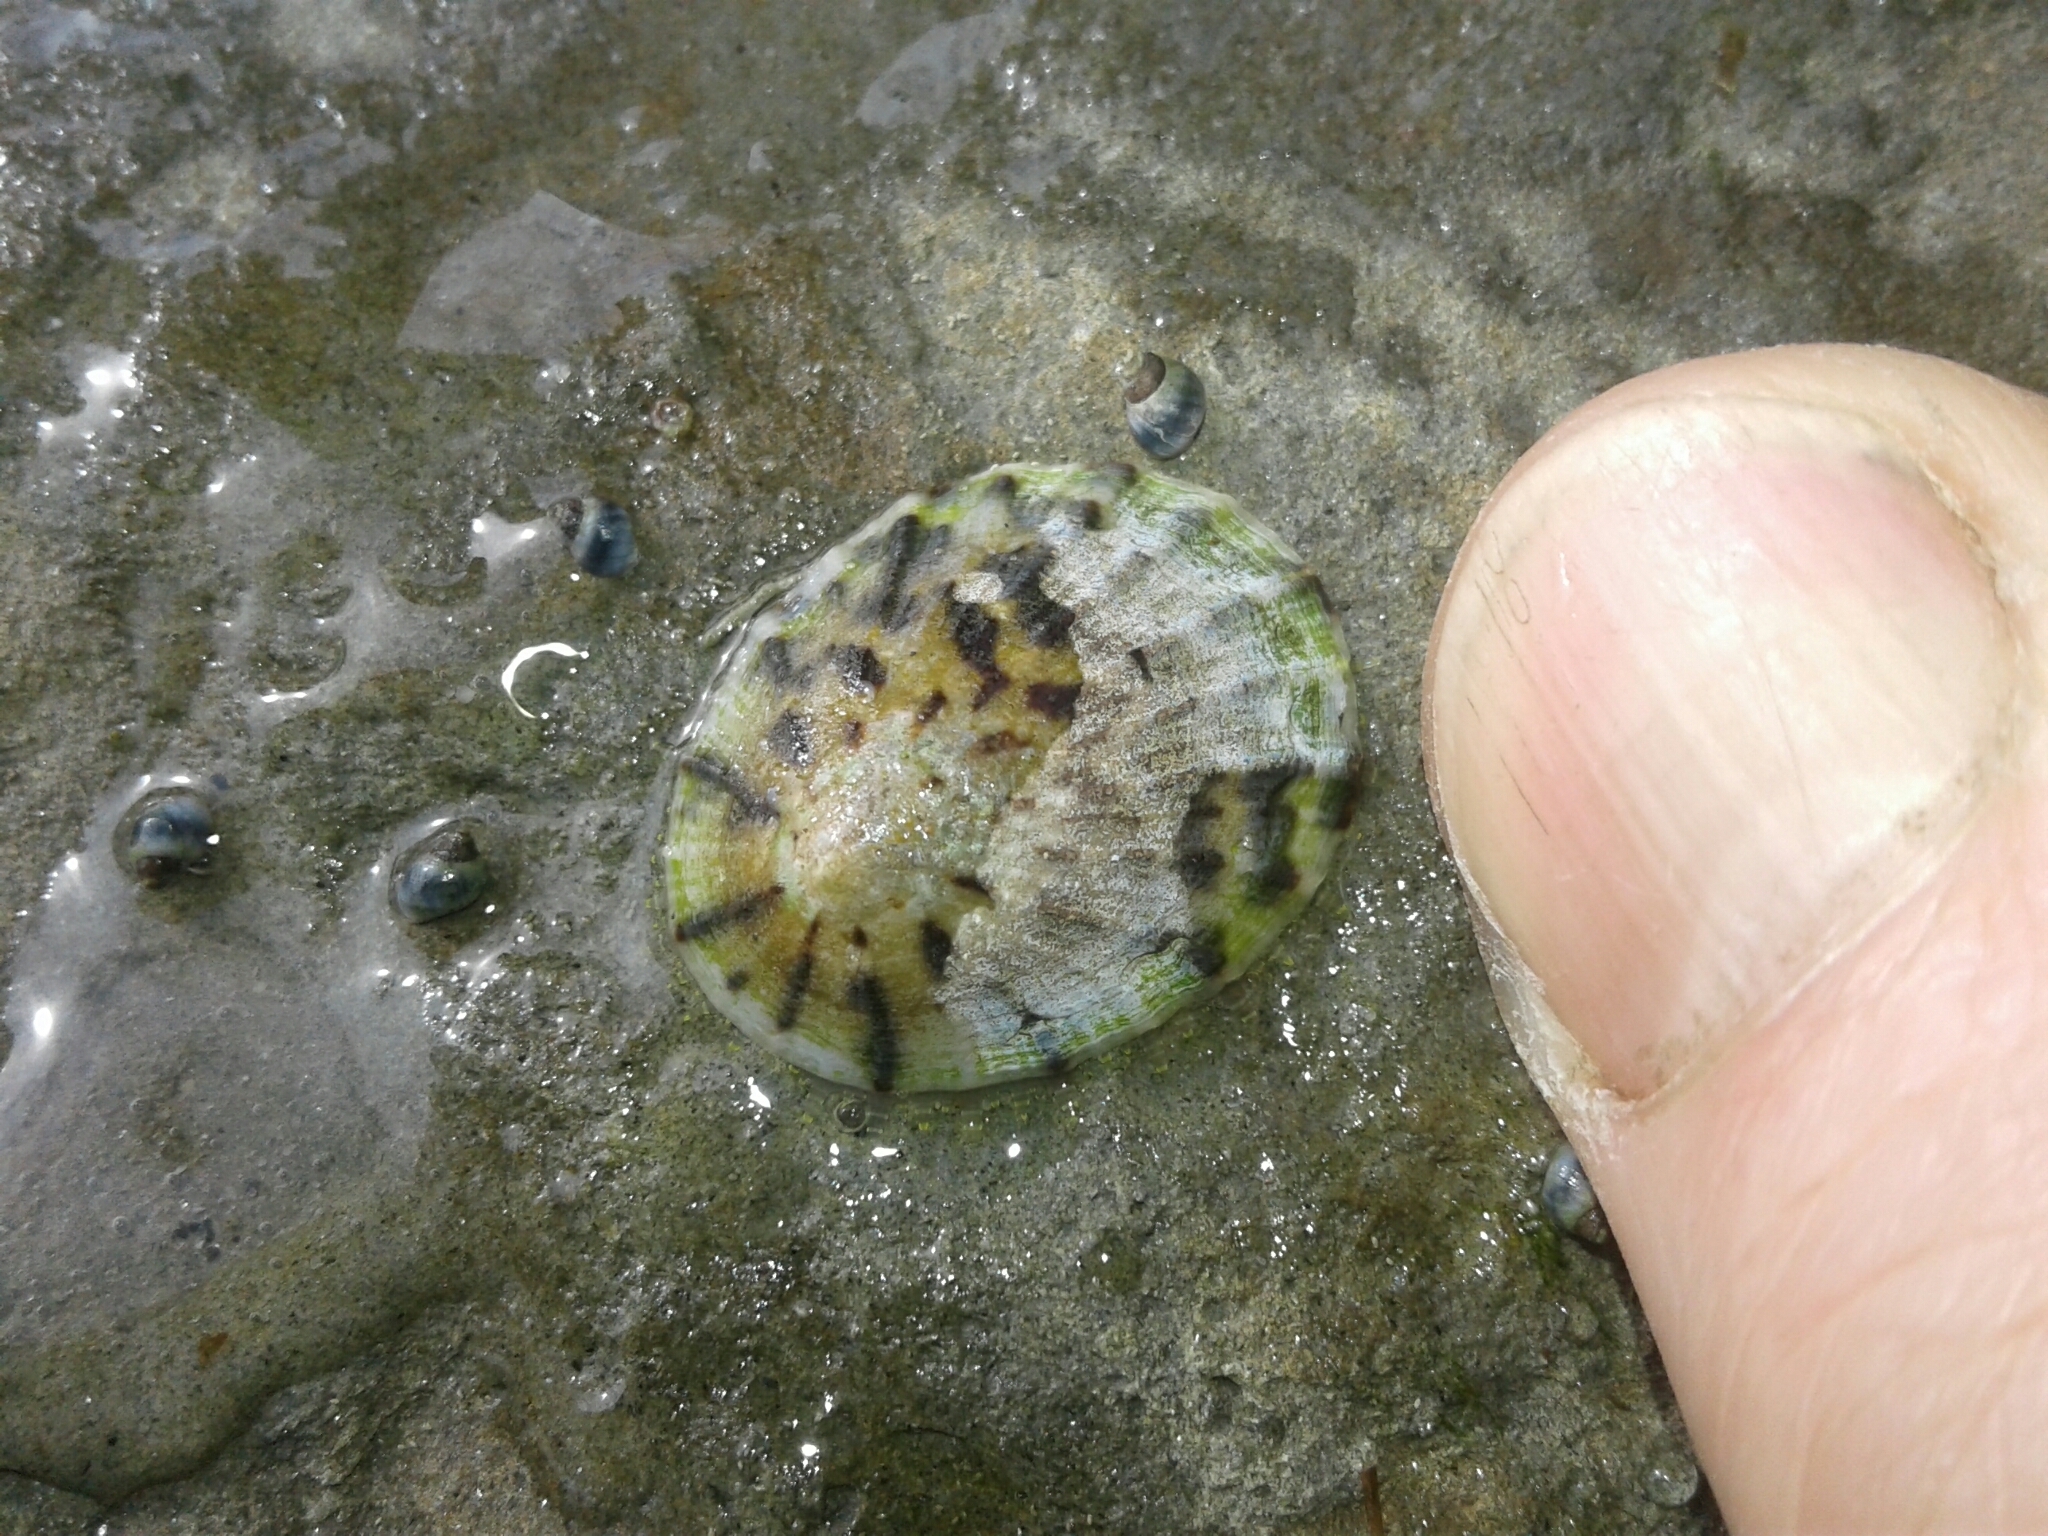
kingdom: Animalia
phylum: Mollusca
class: Gastropoda
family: Nacellidae
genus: Cellana
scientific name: Cellana radians
